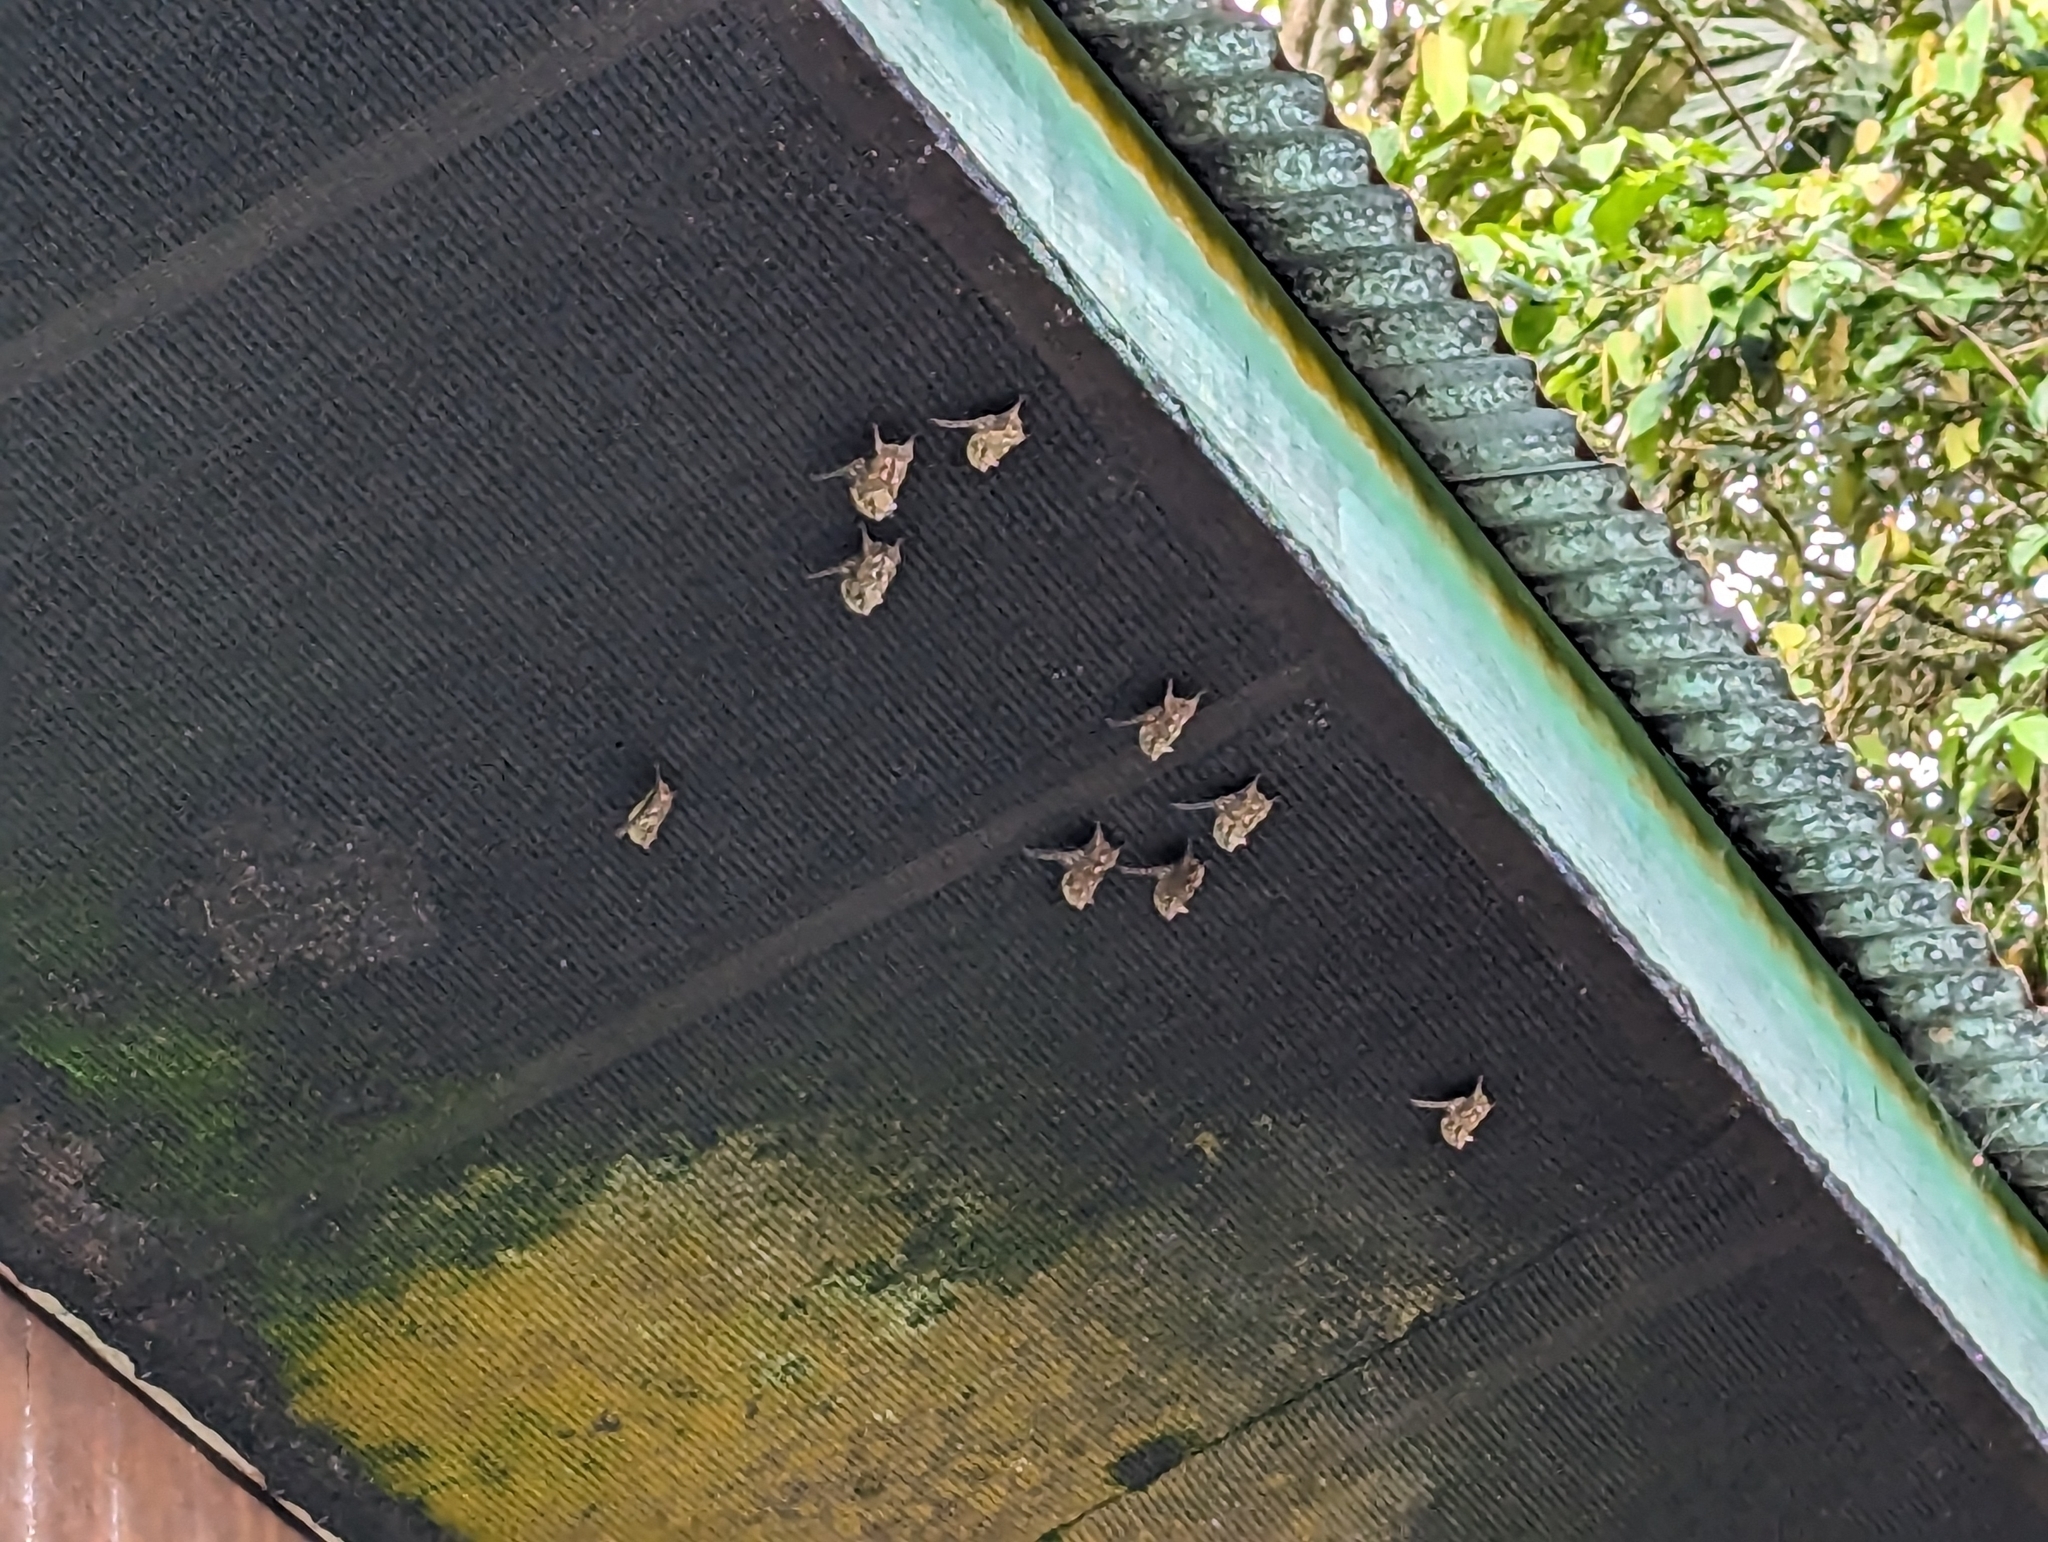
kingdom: Animalia
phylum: Chordata
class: Mammalia
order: Chiroptera
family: Emballonuridae
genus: Rhynchonycteris
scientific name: Rhynchonycteris naso
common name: Proboscis bat
